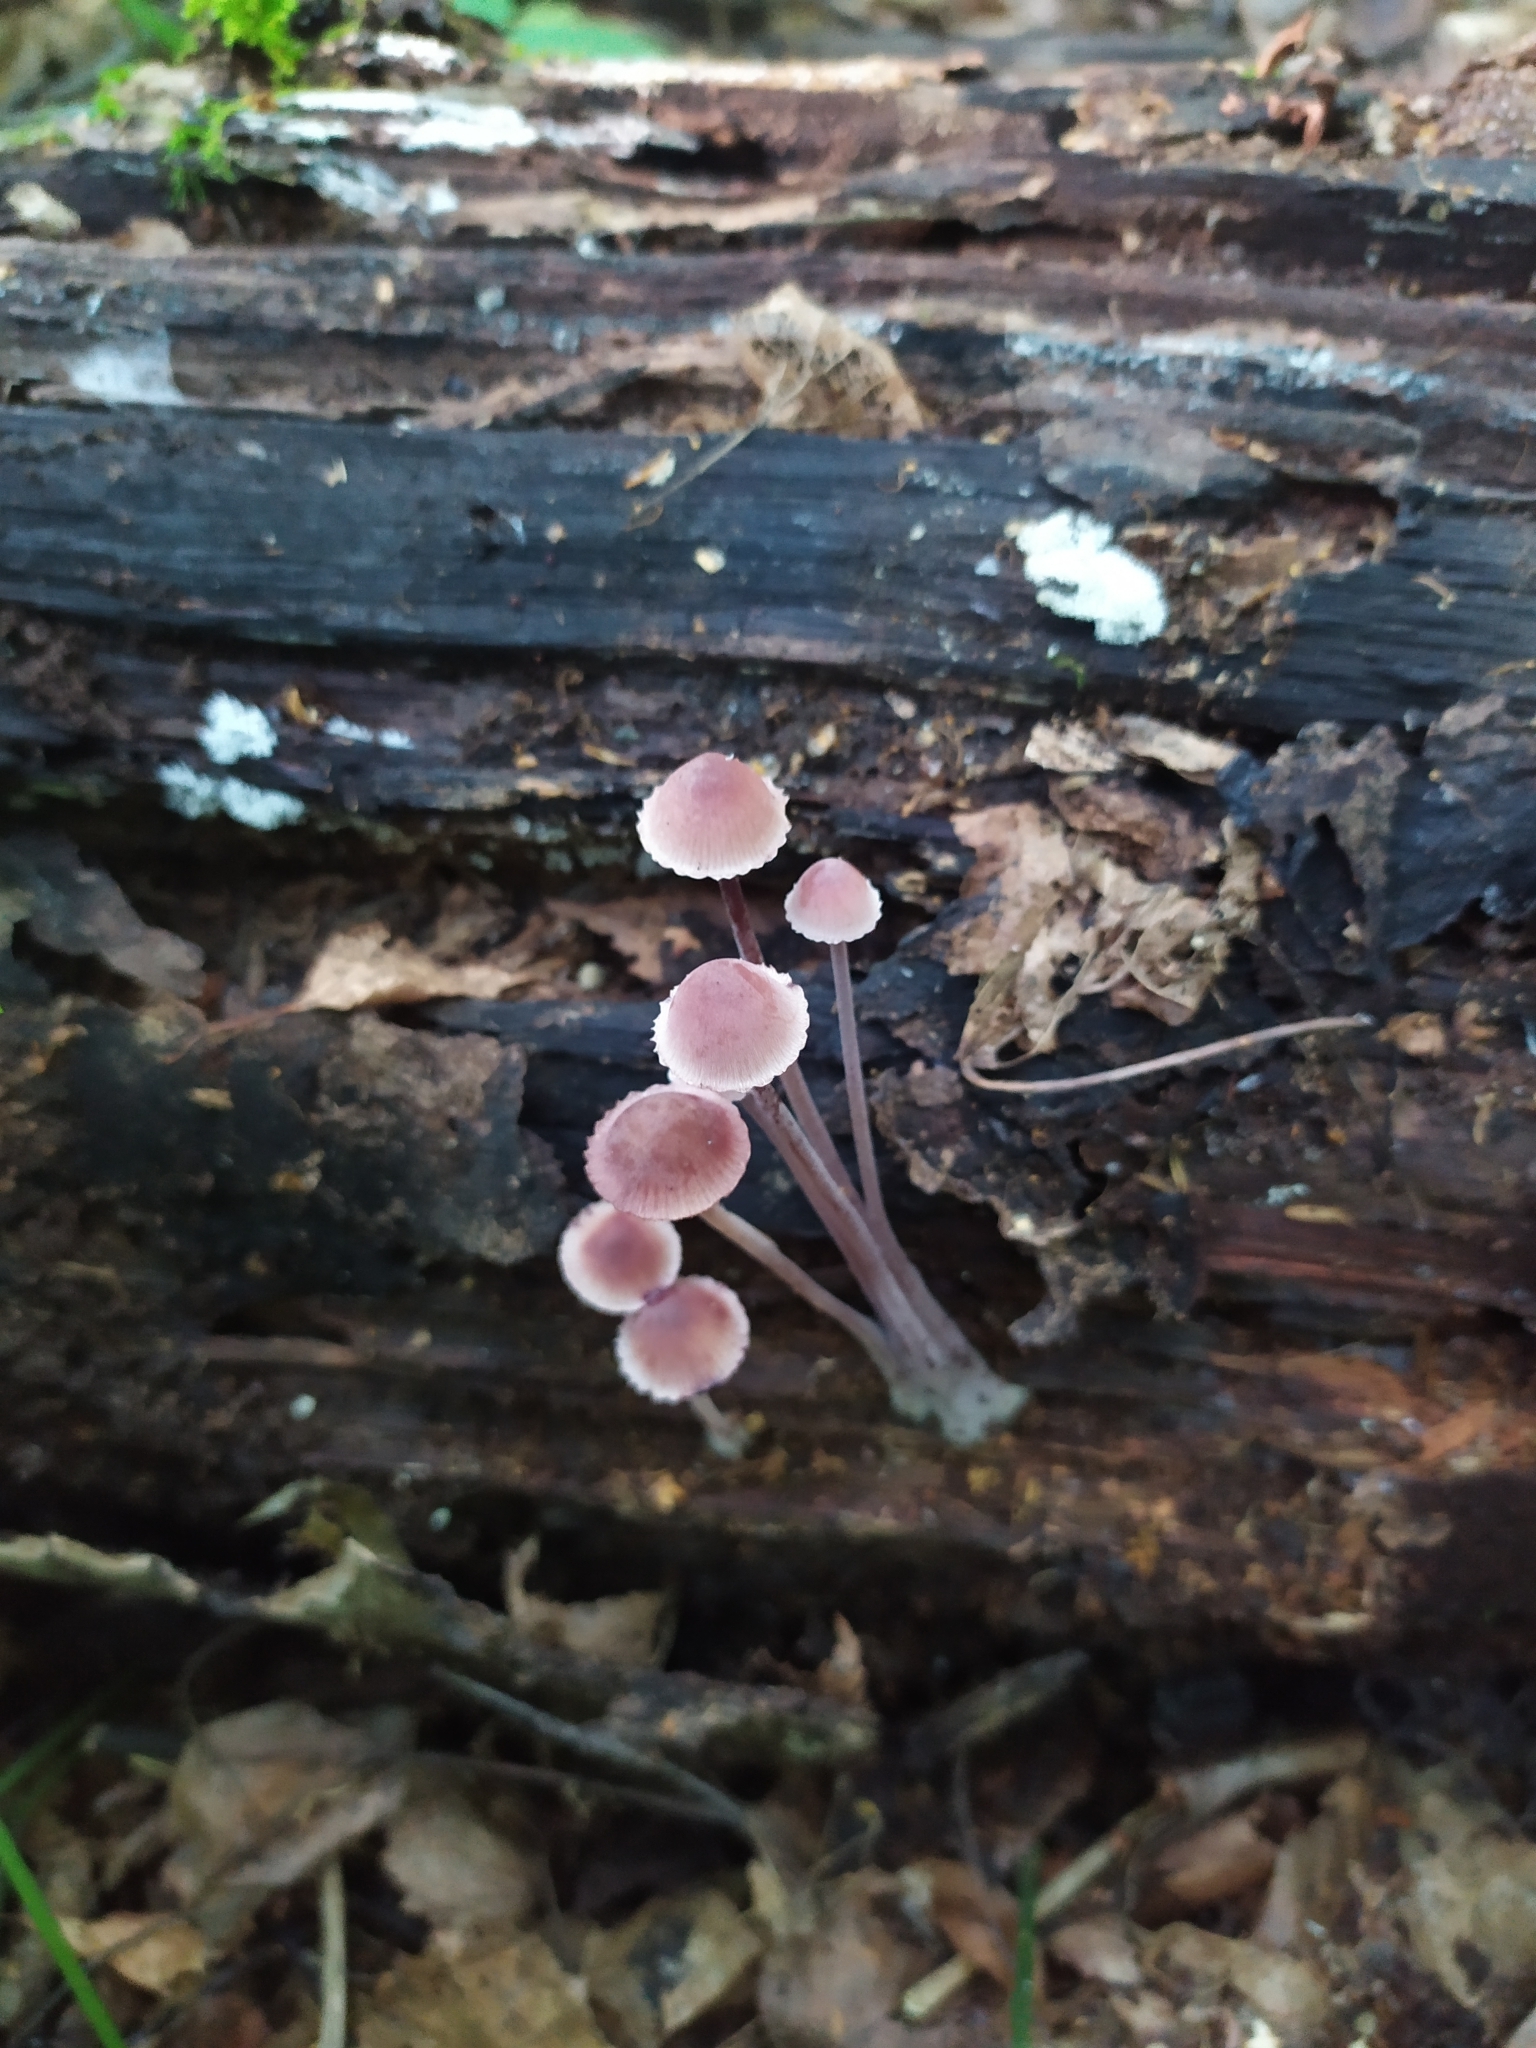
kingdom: Fungi
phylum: Basidiomycota
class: Agaricomycetes
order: Agaricales
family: Mycenaceae
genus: Mycena
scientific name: Mycena haematopus
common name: Burgundydrop bonnet
